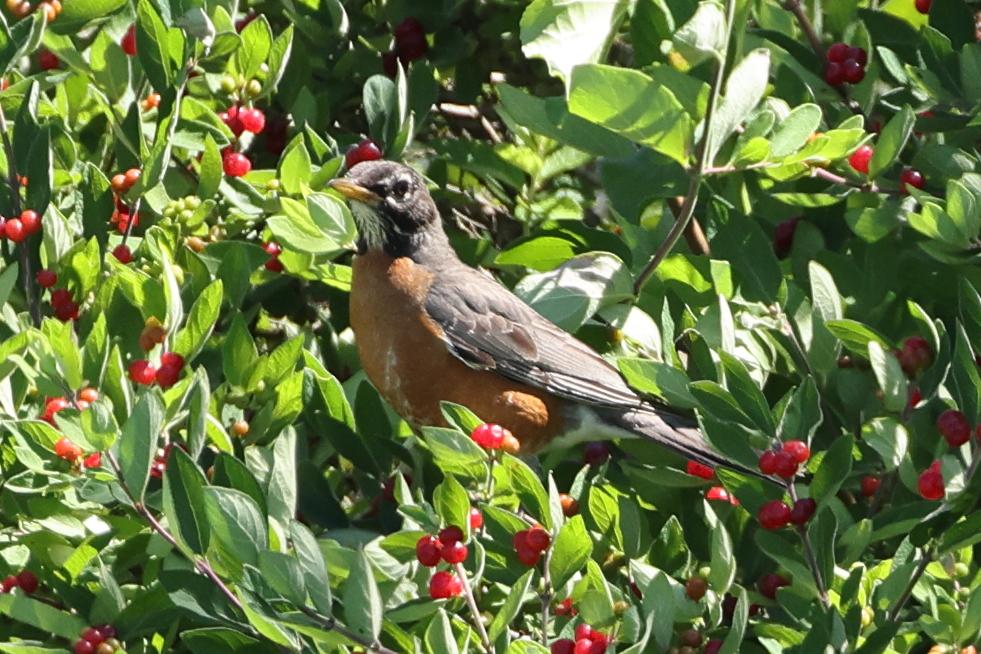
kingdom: Animalia
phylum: Chordata
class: Aves
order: Passeriformes
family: Turdidae
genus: Turdus
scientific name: Turdus migratorius
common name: American robin
